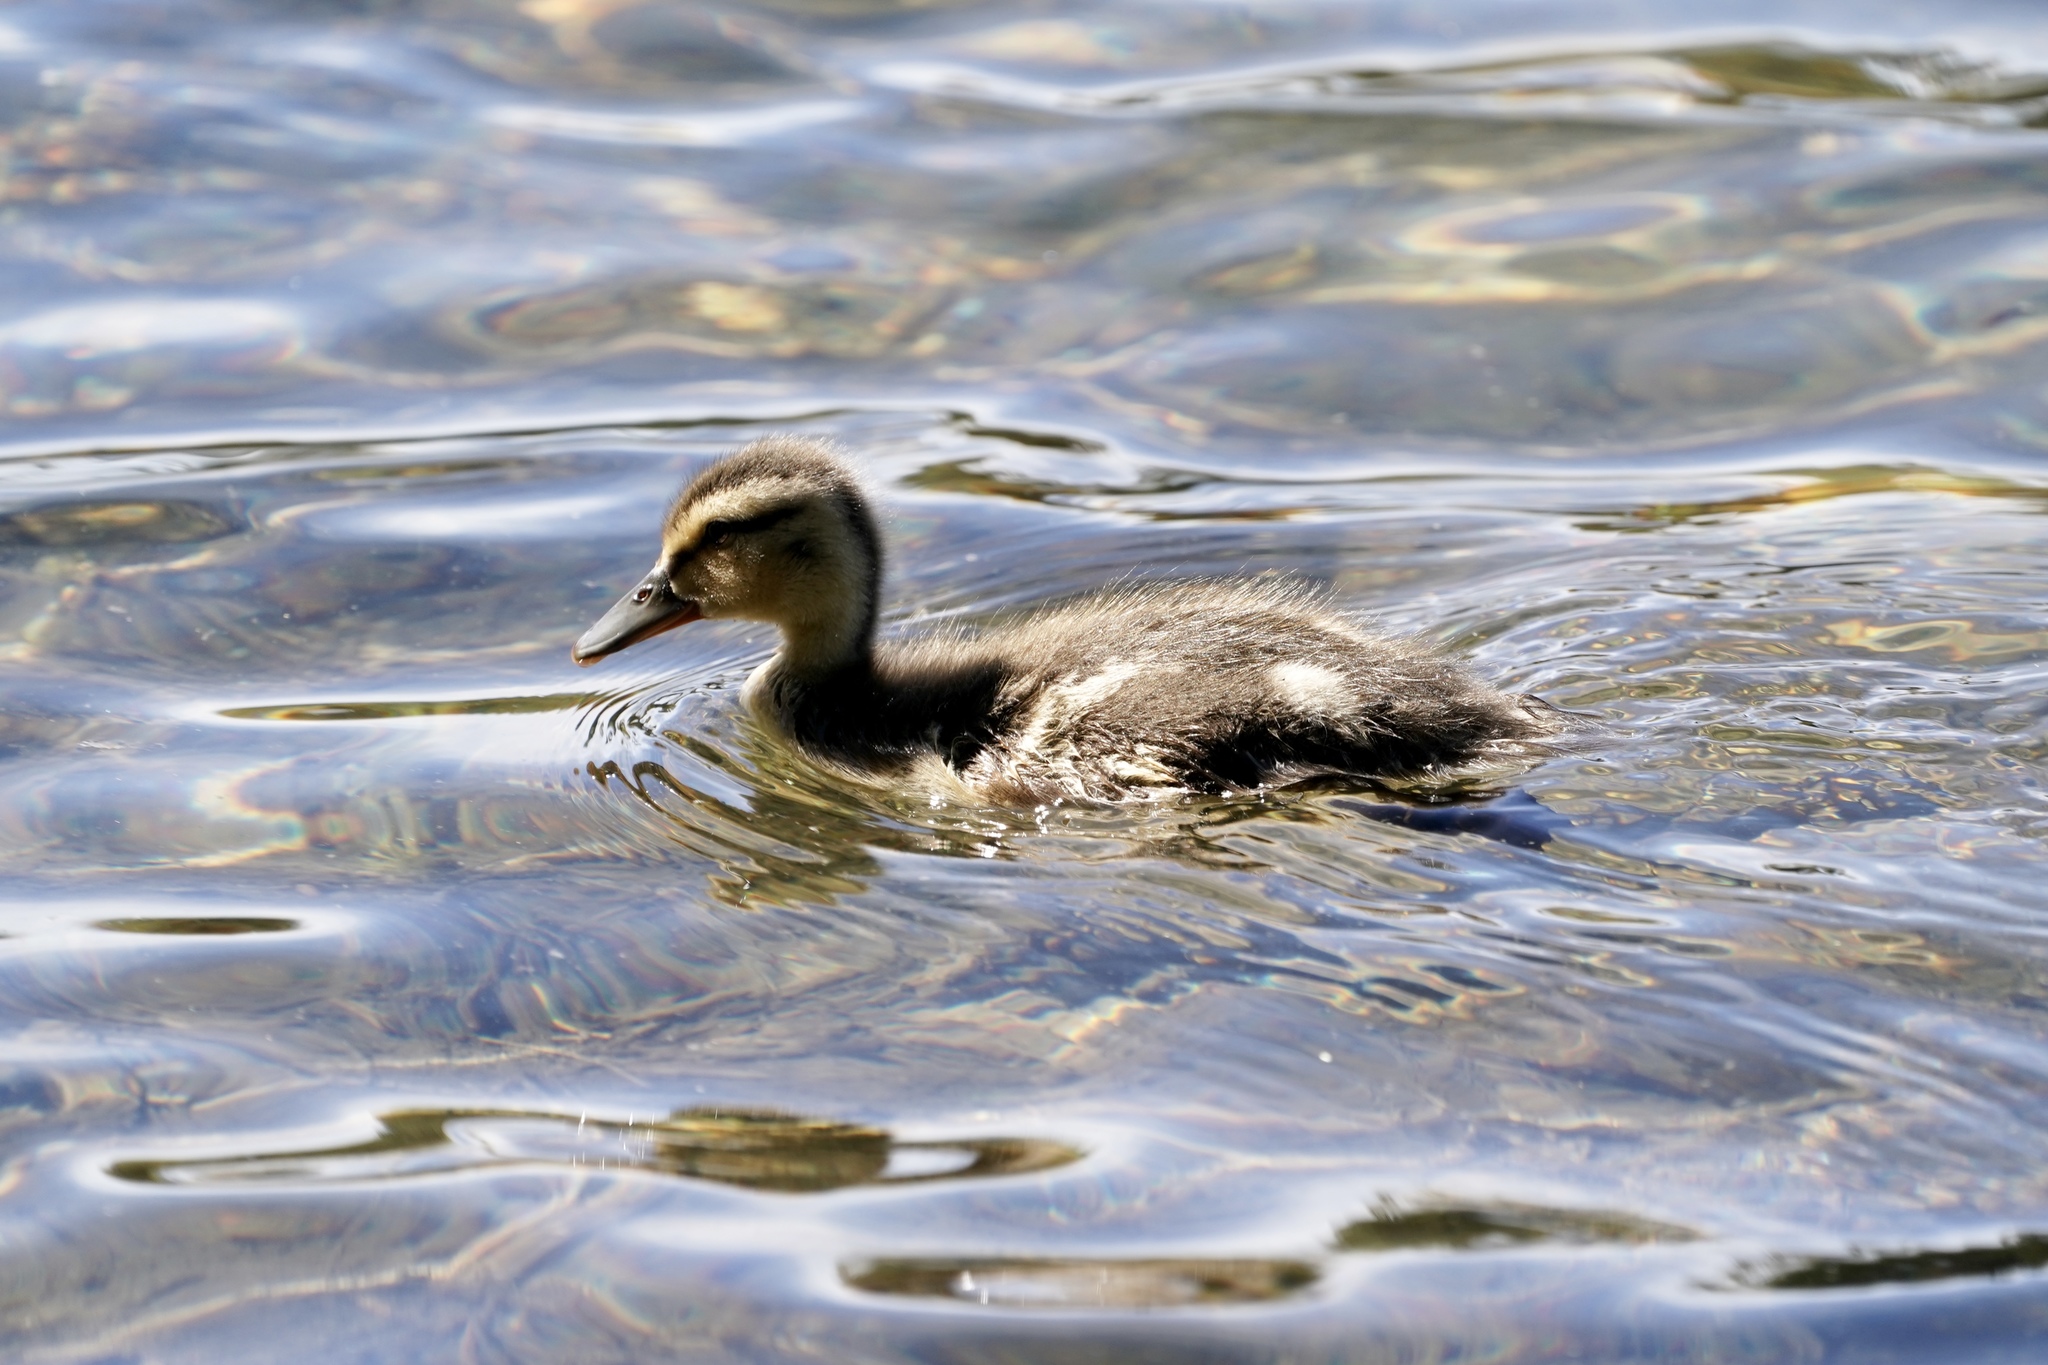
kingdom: Animalia
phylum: Chordata
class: Aves
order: Anseriformes
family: Anatidae
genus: Anas
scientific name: Anas platyrhynchos
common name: Mallard
